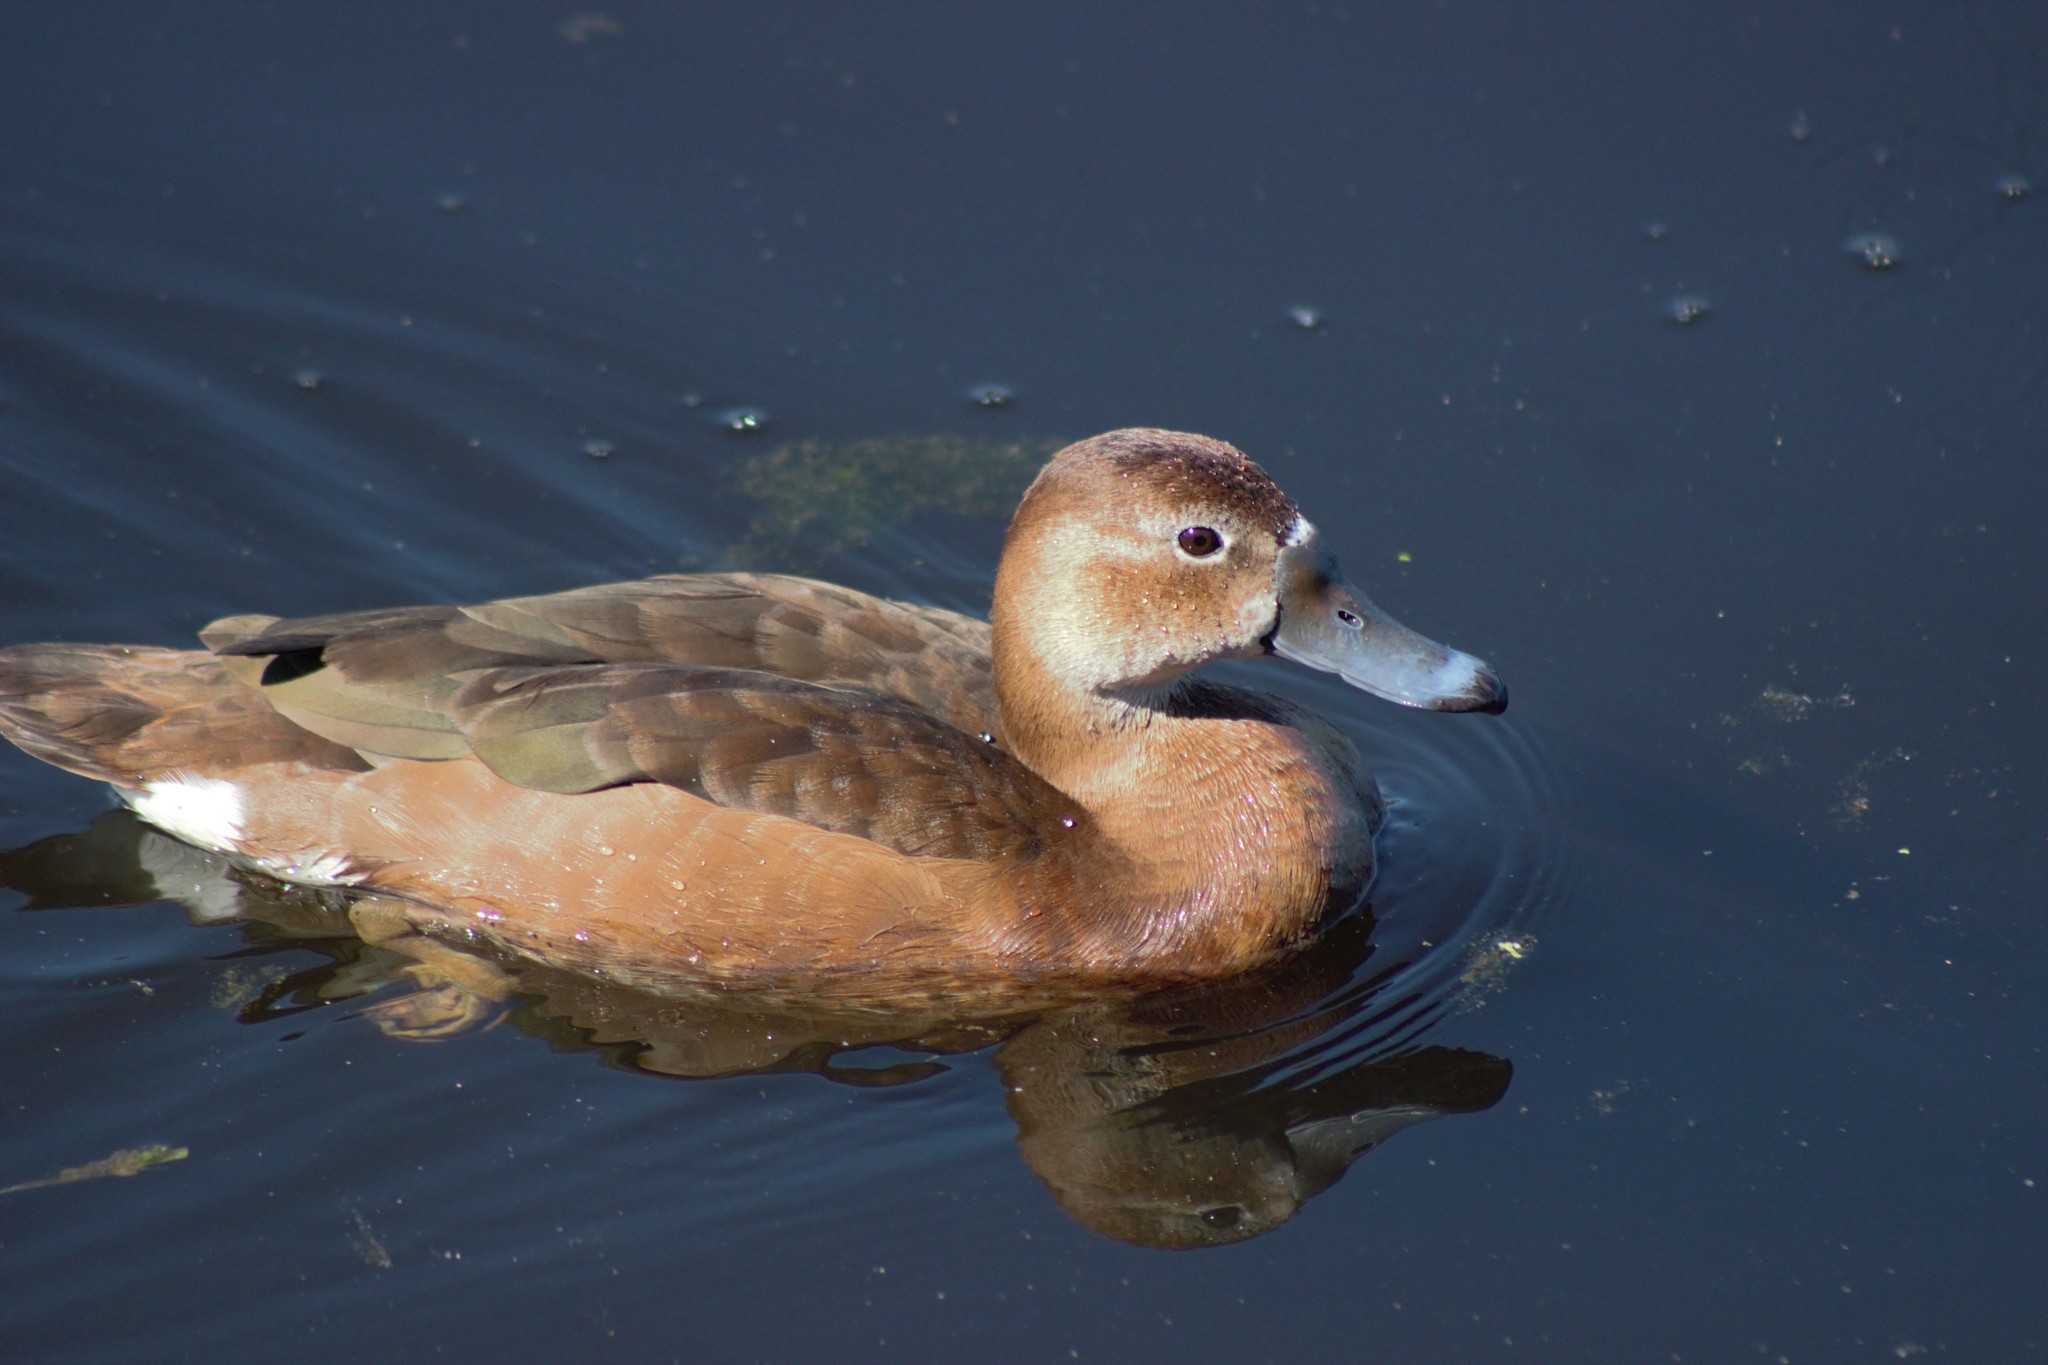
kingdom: Animalia
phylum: Chordata
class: Aves
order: Anseriformes
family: Anatidae
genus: Netta
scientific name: Netta peposaca
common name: Rosy-billed pochard
